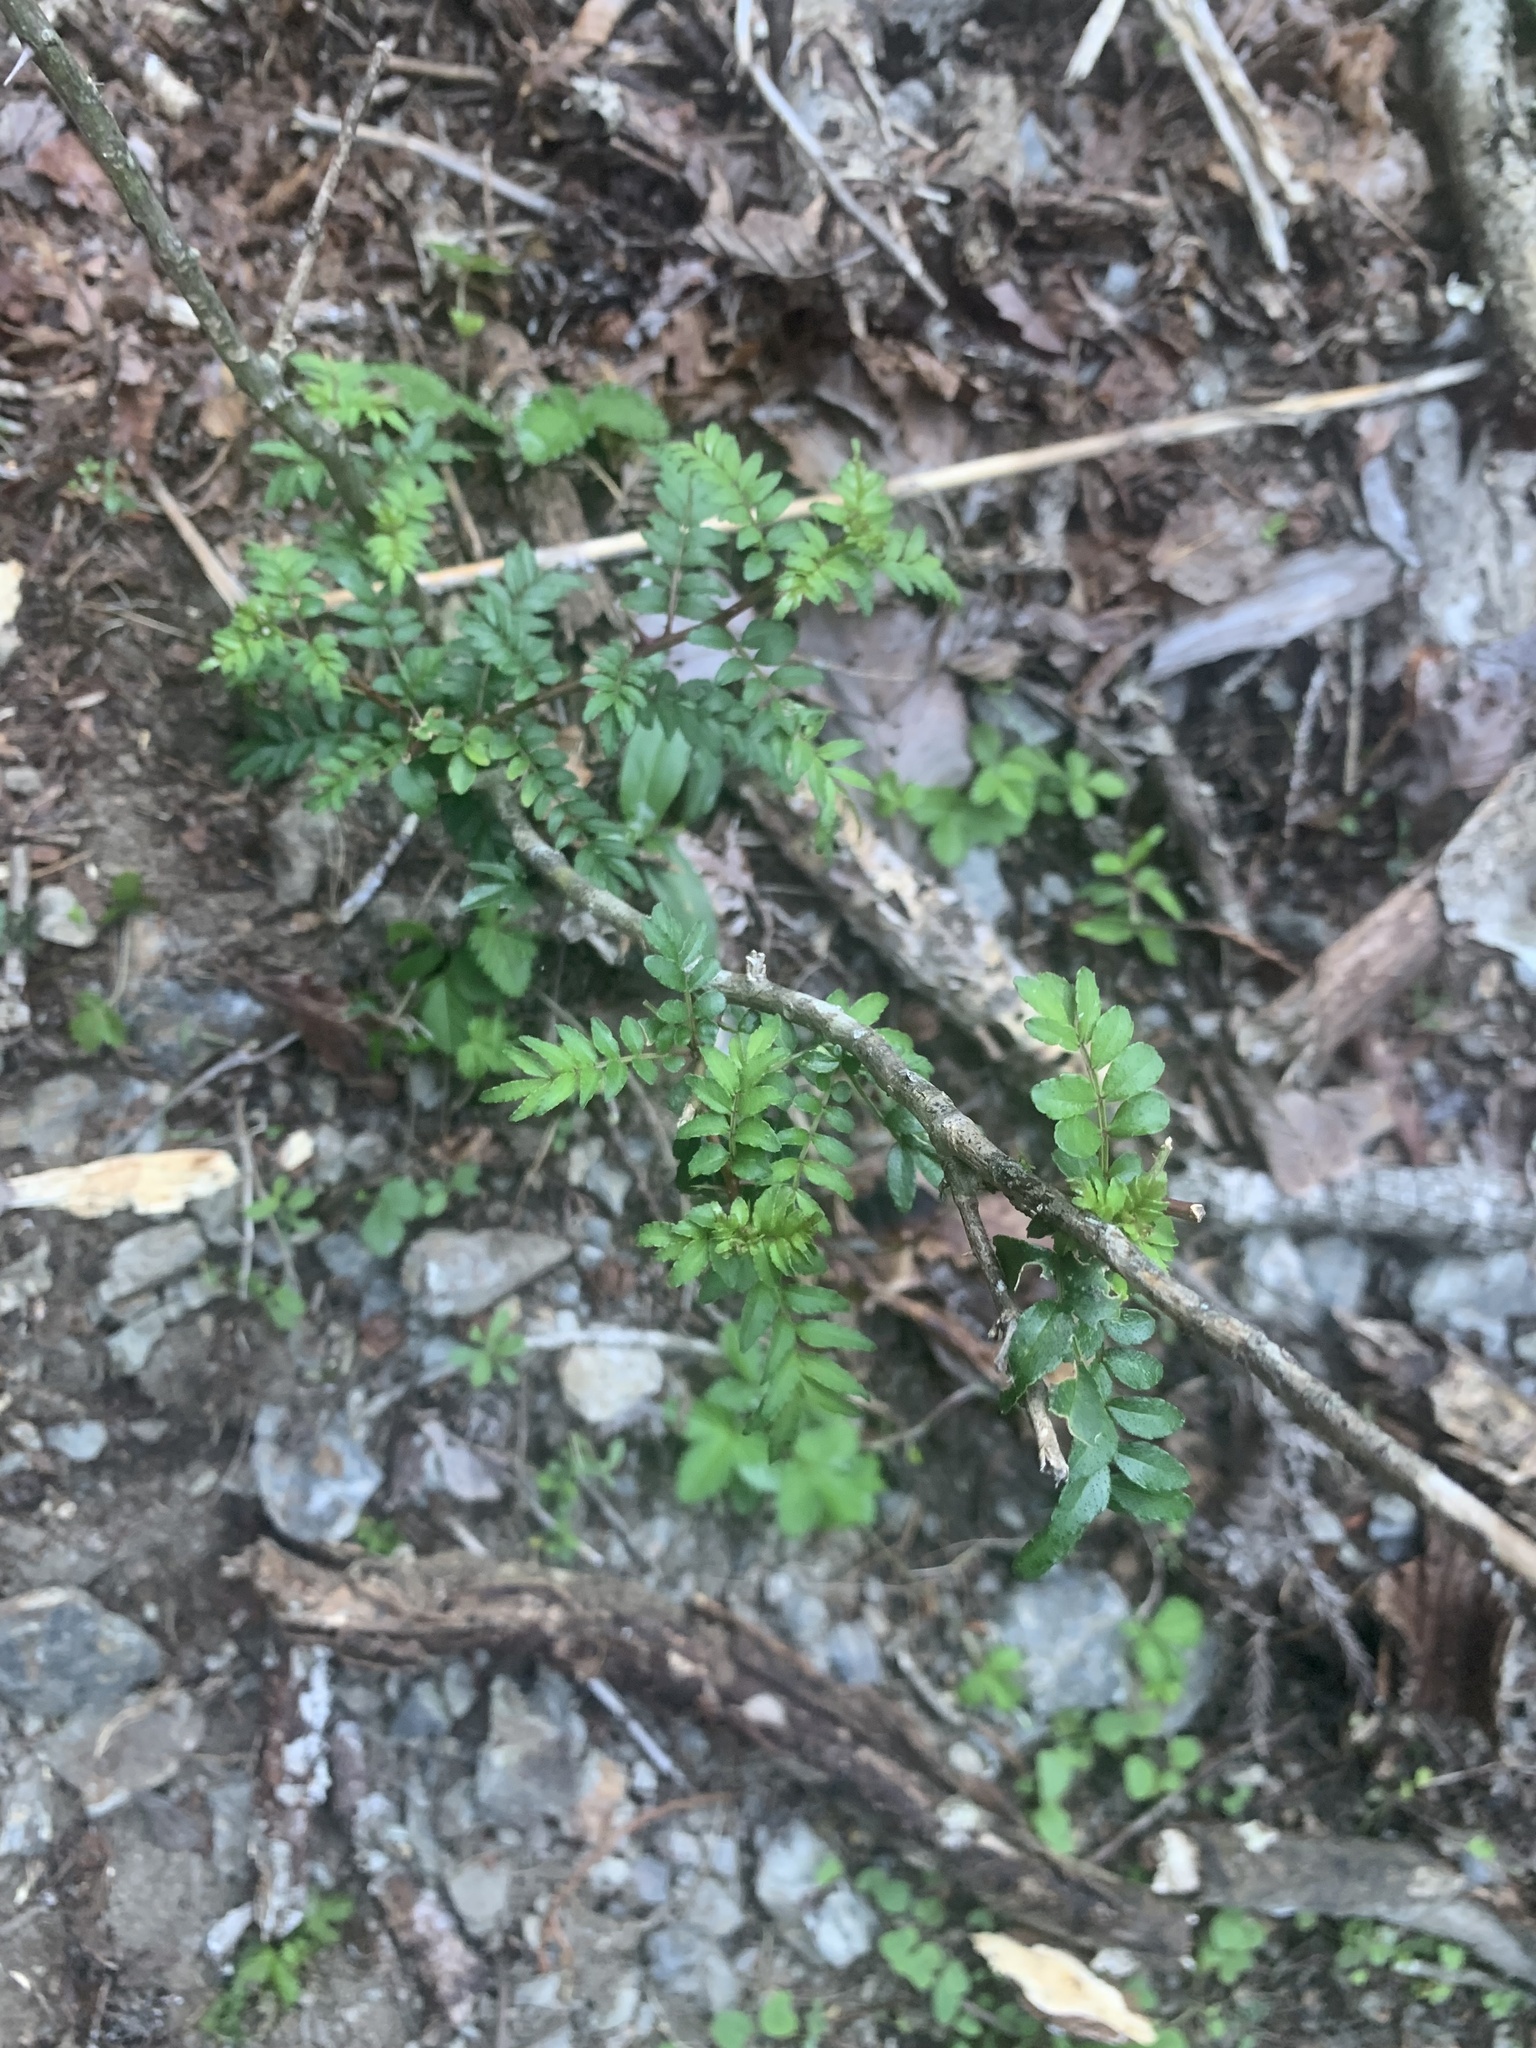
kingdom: Plantae
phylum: Tracheophyta
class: Magnoliopsida
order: Sapindales
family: Rutaceae
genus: Zanthoxylum
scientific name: Zanthoxylum piperitum
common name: Japanese-pepper
